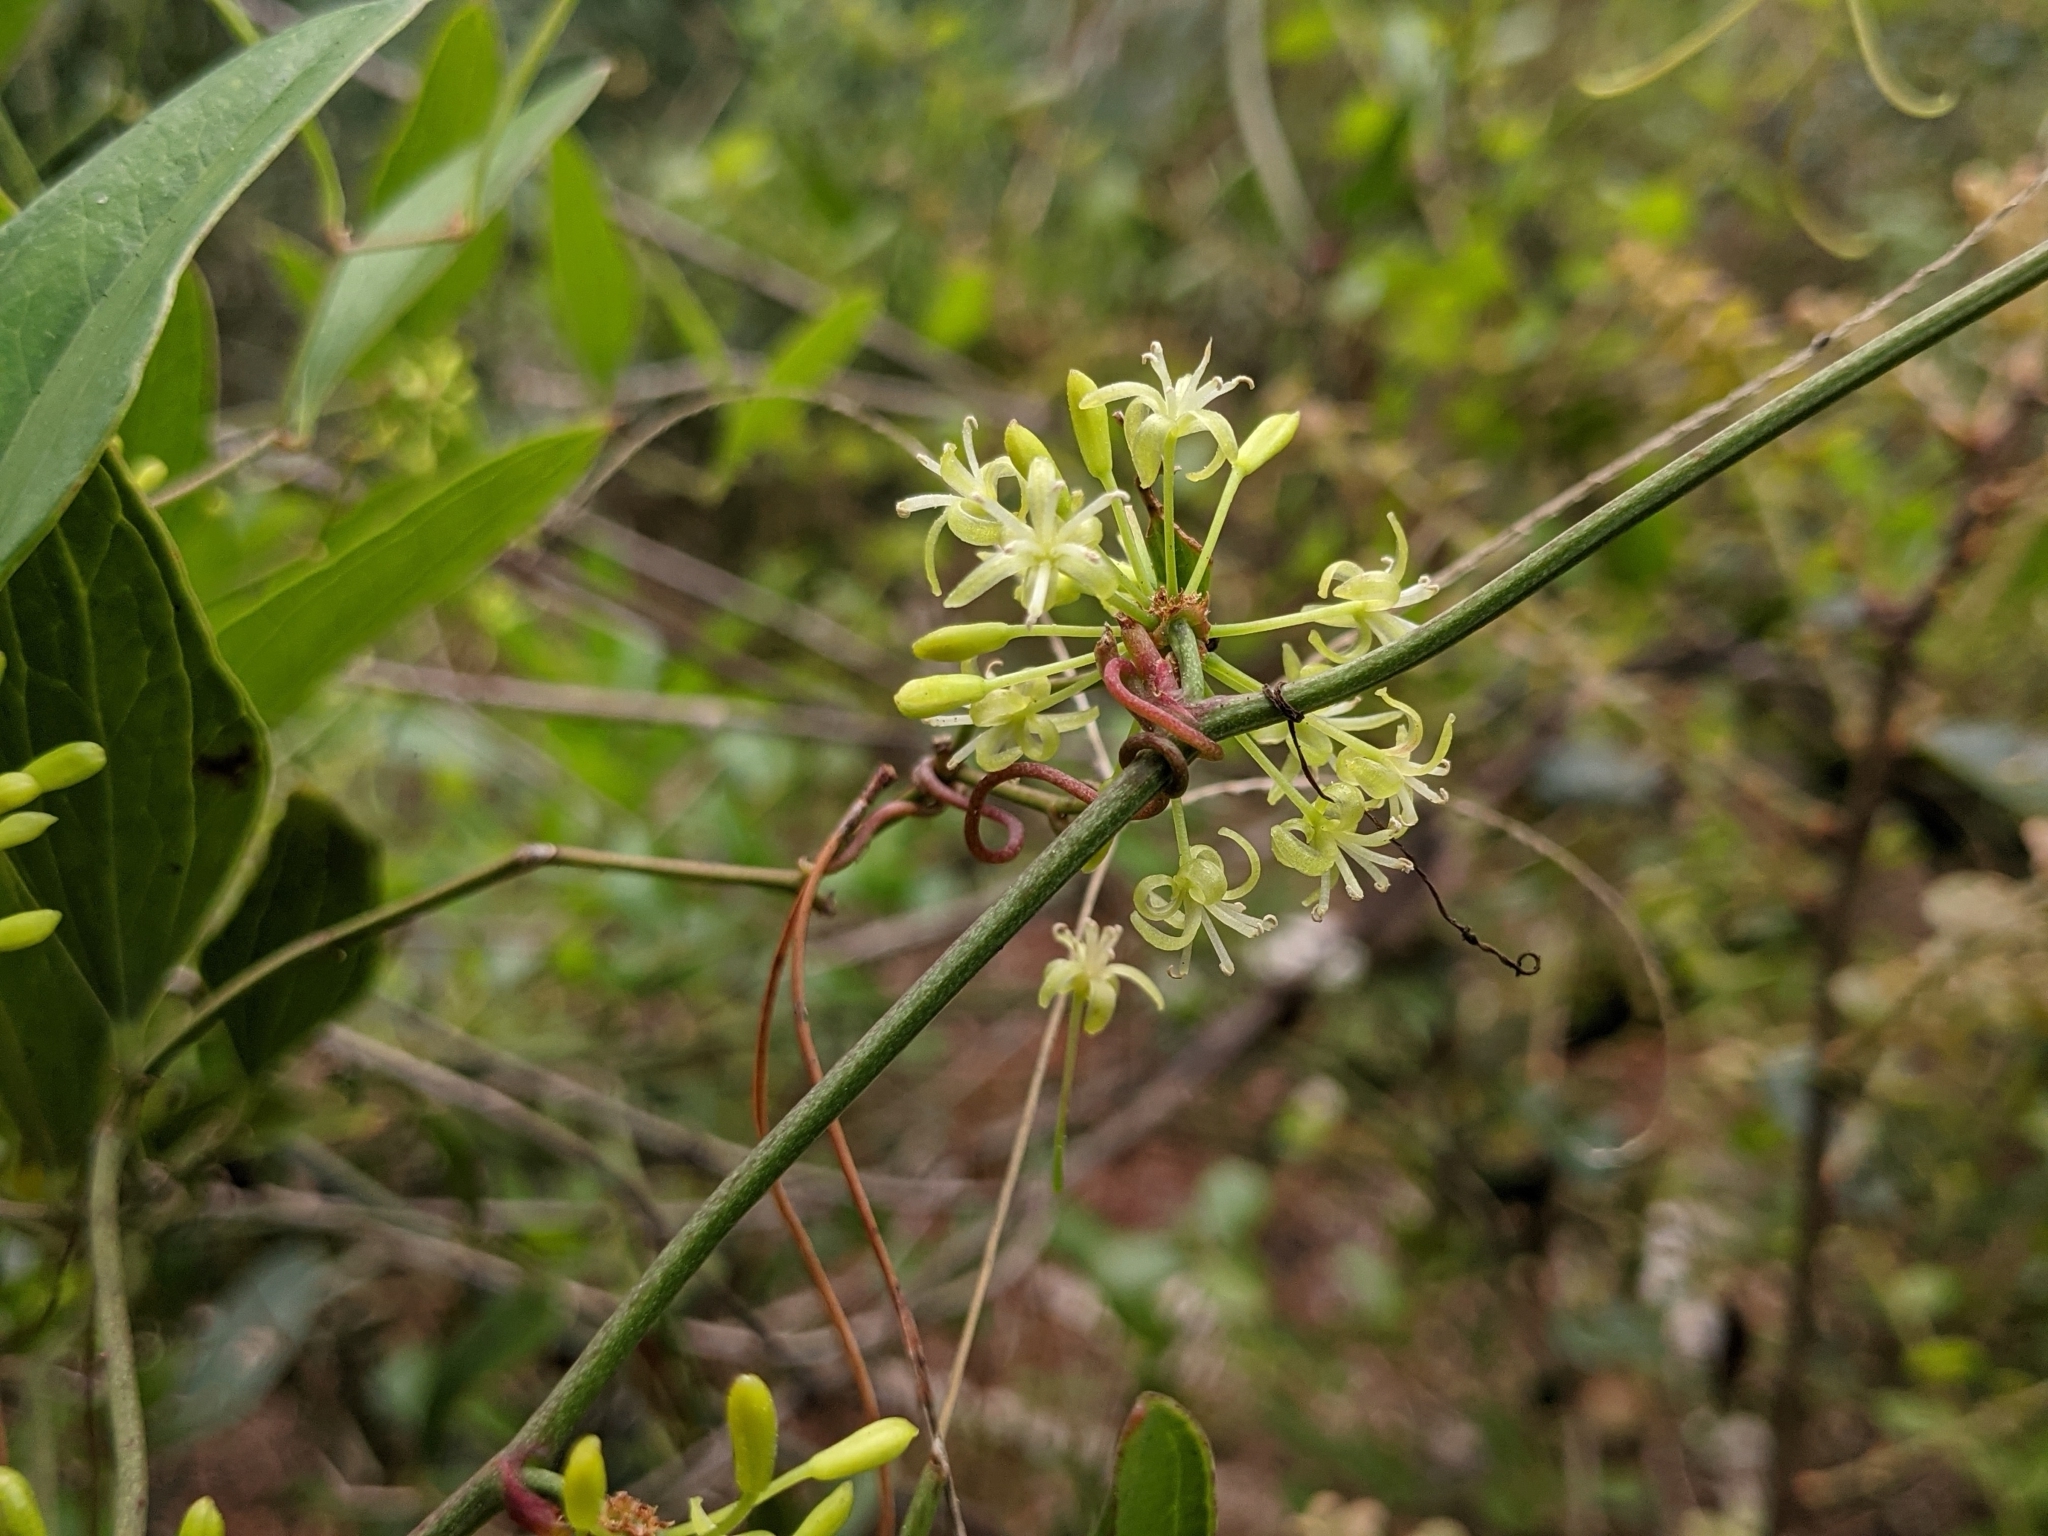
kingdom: Plantae
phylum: Tracheophyta
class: Liliopsida
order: Liliales
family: Smilacaceae
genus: Smilax
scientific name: Smilax auriculata
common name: Wild bamboo
